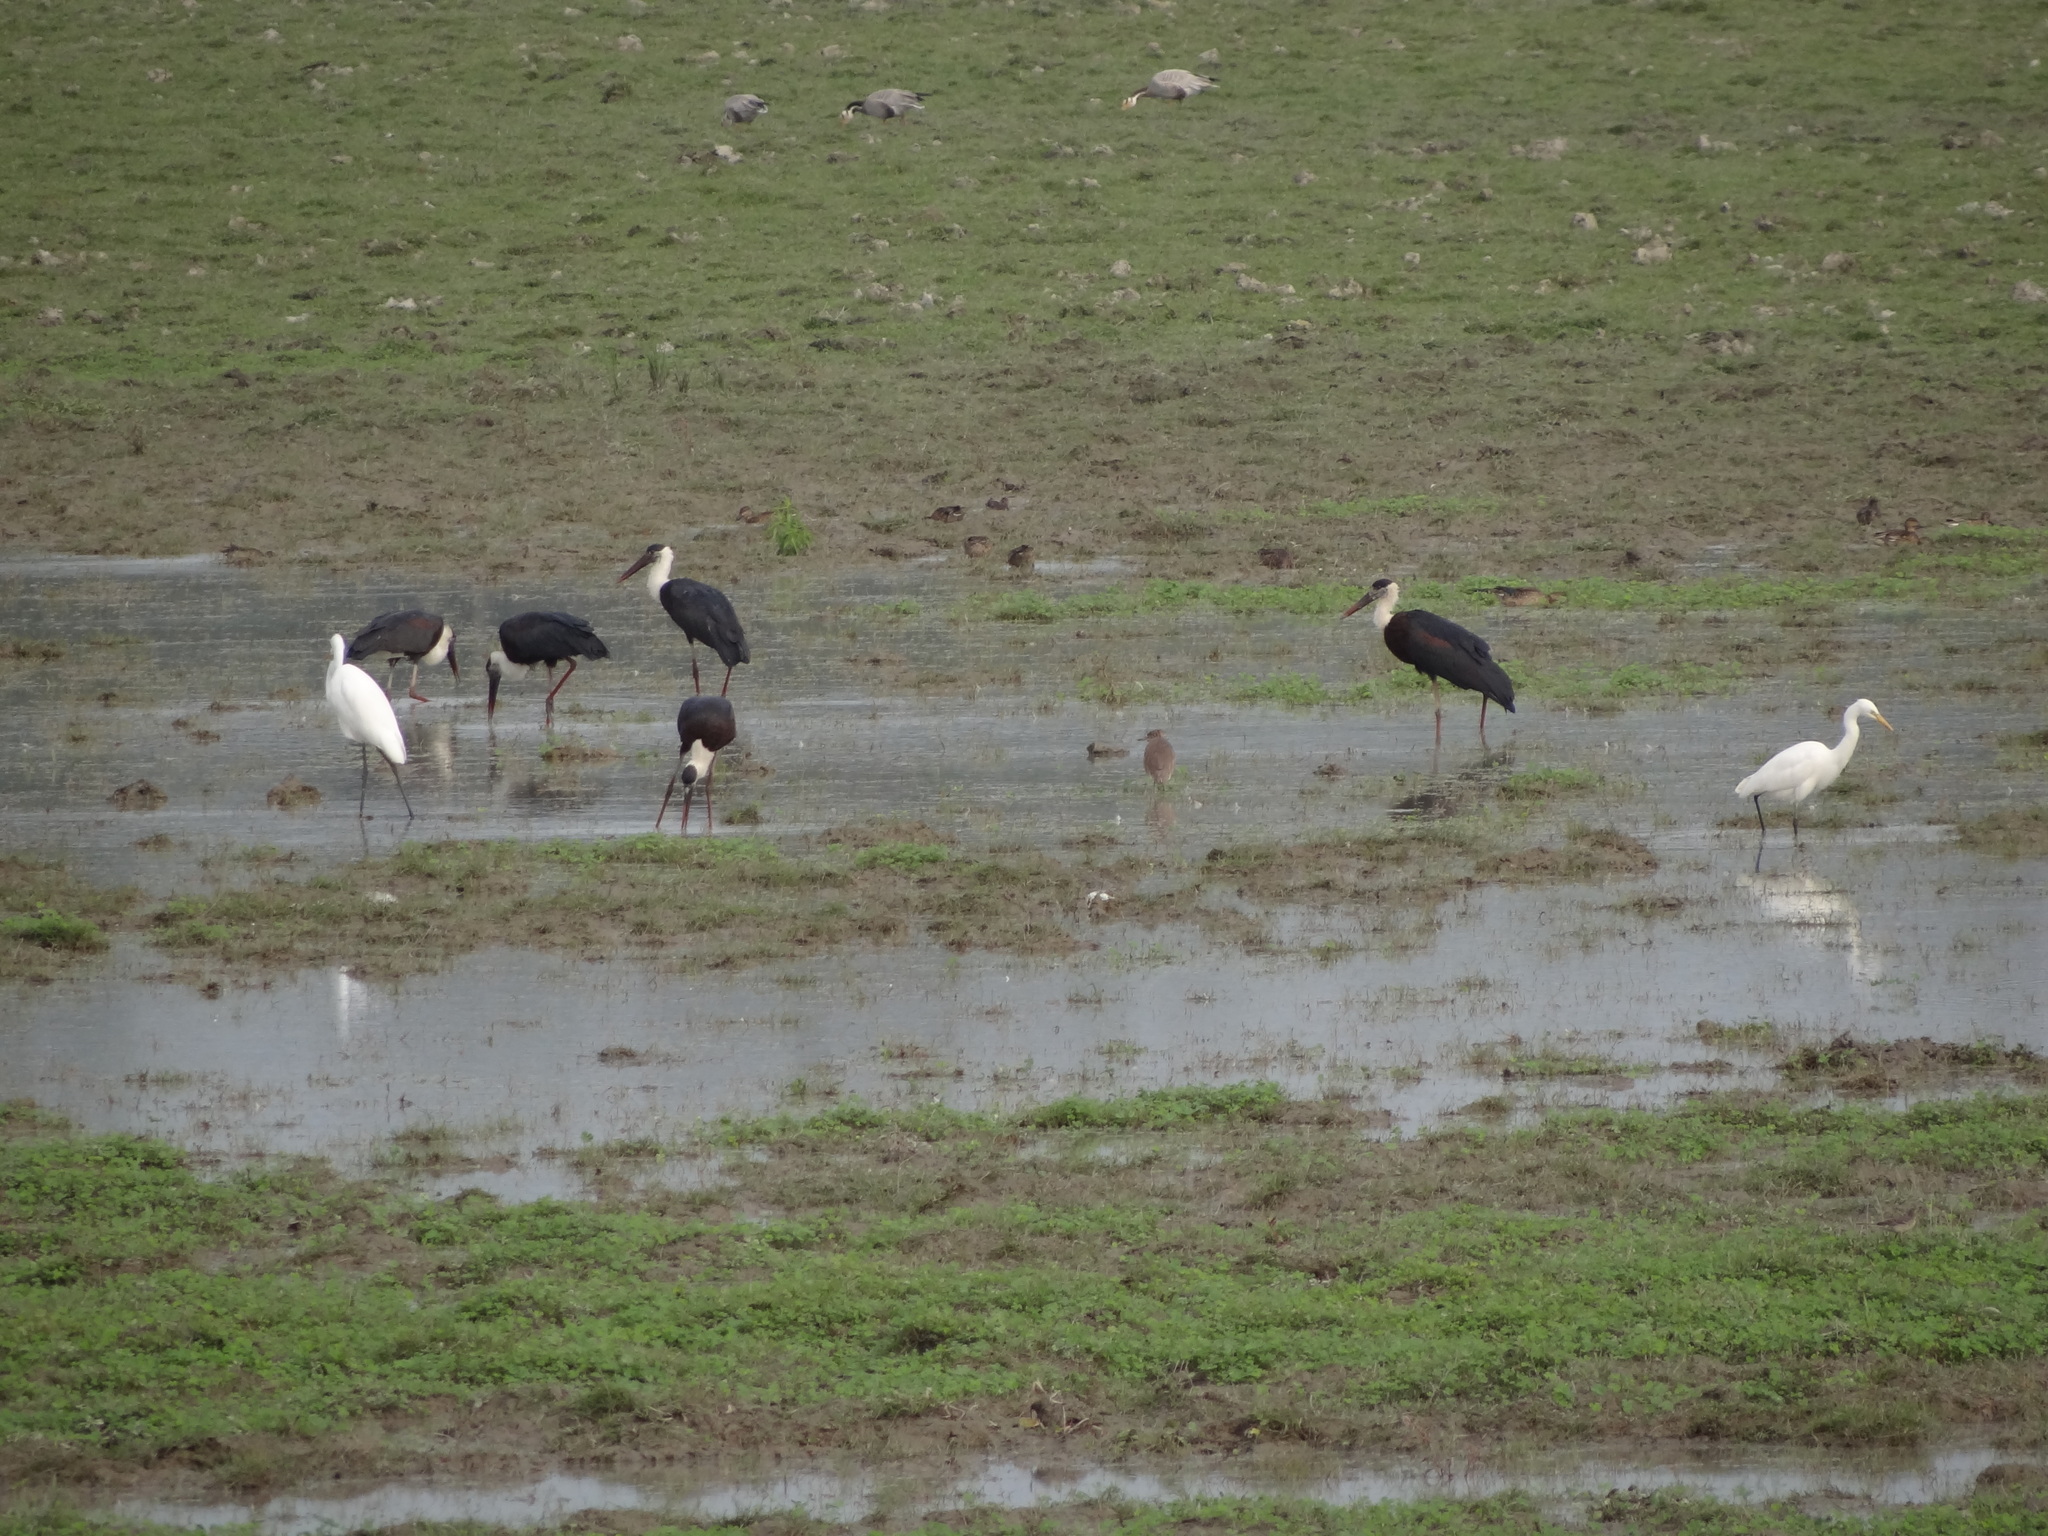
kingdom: Animalia
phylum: Chordata
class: Aves
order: Ciconiiformes
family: Ciconiidae
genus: Ciconia
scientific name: Ciconia episcopus
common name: Woolly-necked stork
